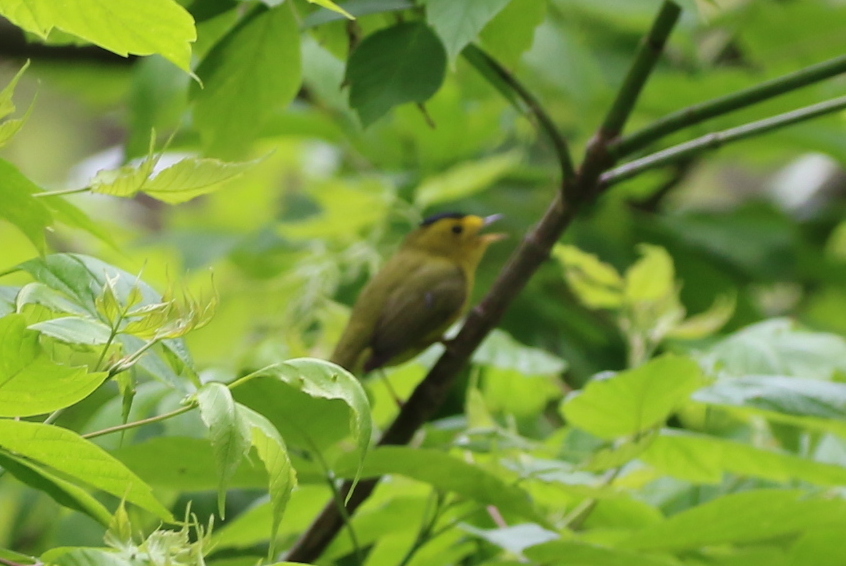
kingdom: Animalia
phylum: Chordata
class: Aves
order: Passeriformes
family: Parulidae
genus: Cardellina
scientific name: Cardellina pusilla
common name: Wilson's warbler
